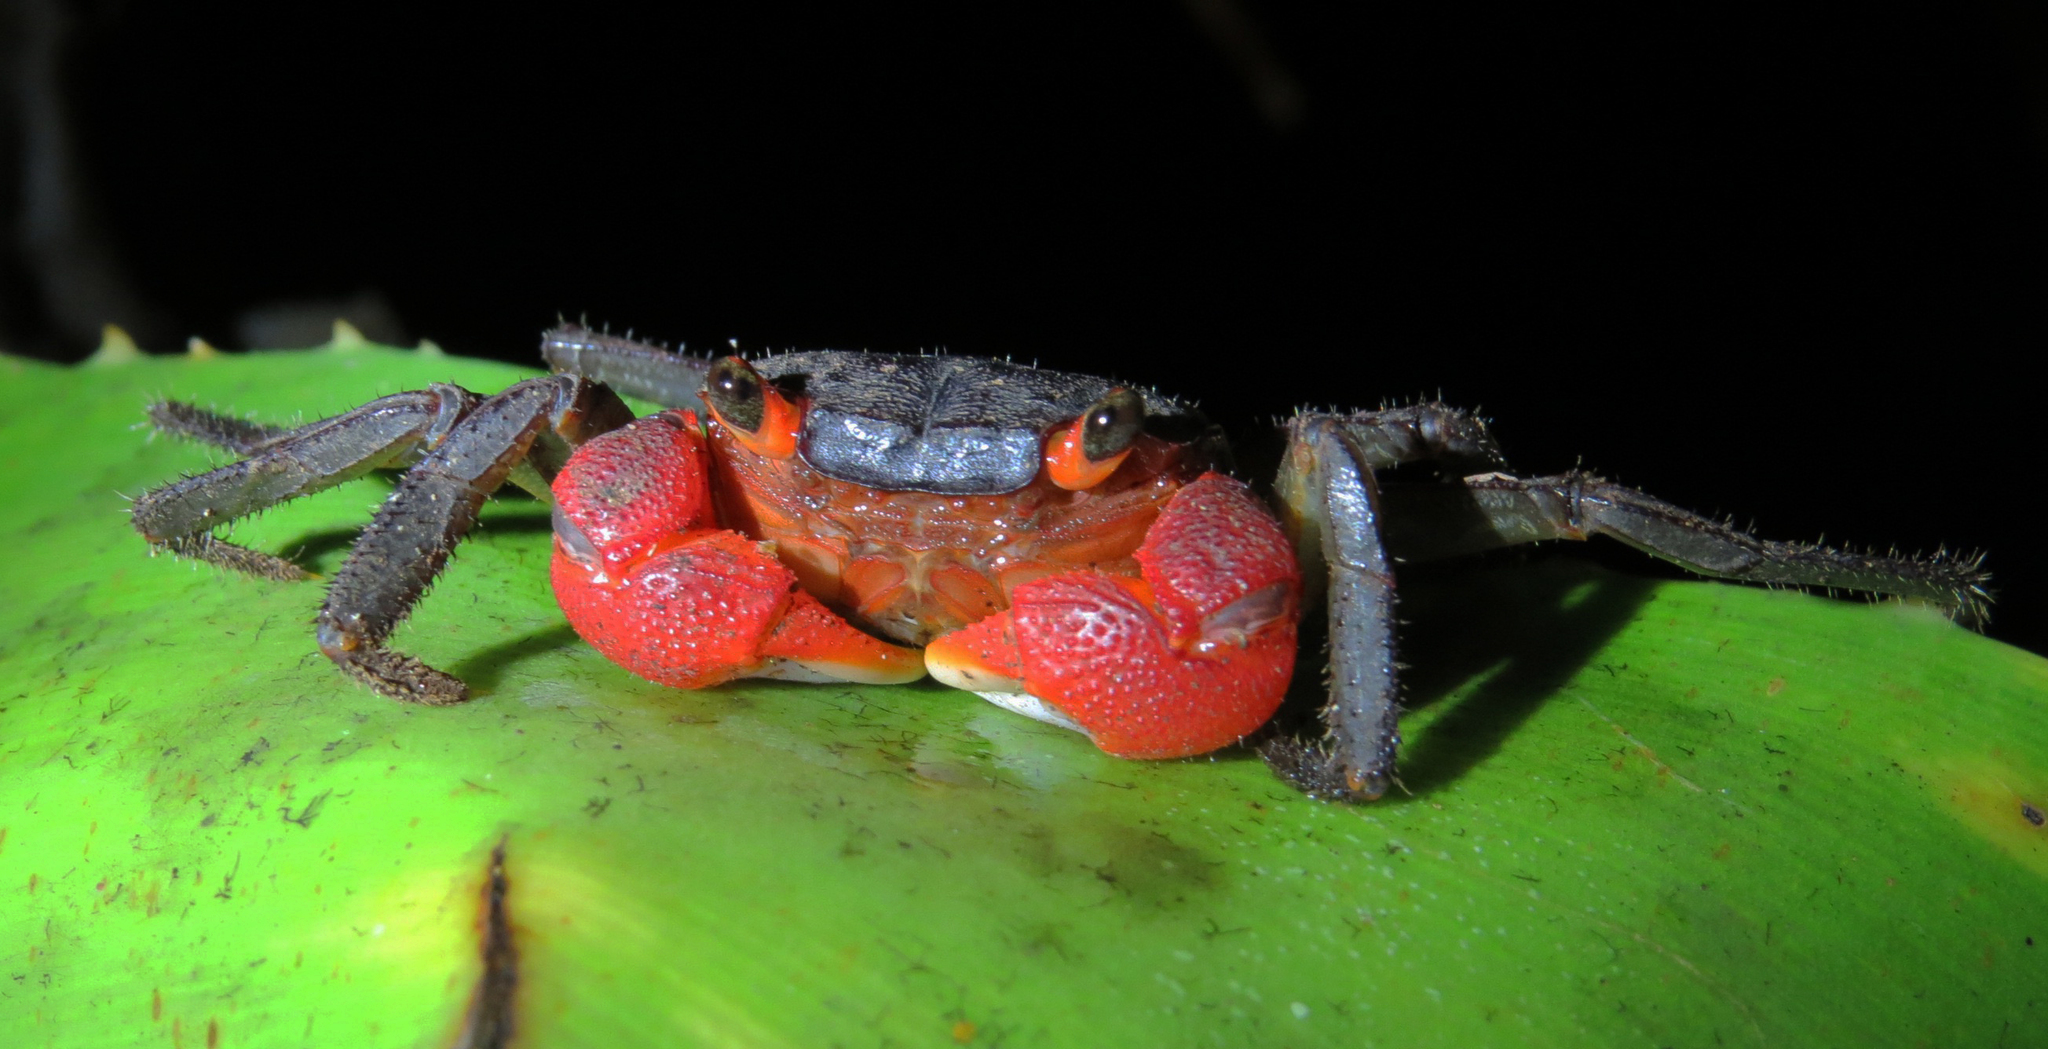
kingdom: Animalia
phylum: Arthropoda
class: Malacostraca
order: Decapoda
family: Sesarmidae
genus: Scandarma
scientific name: Scandarma gracilipes
